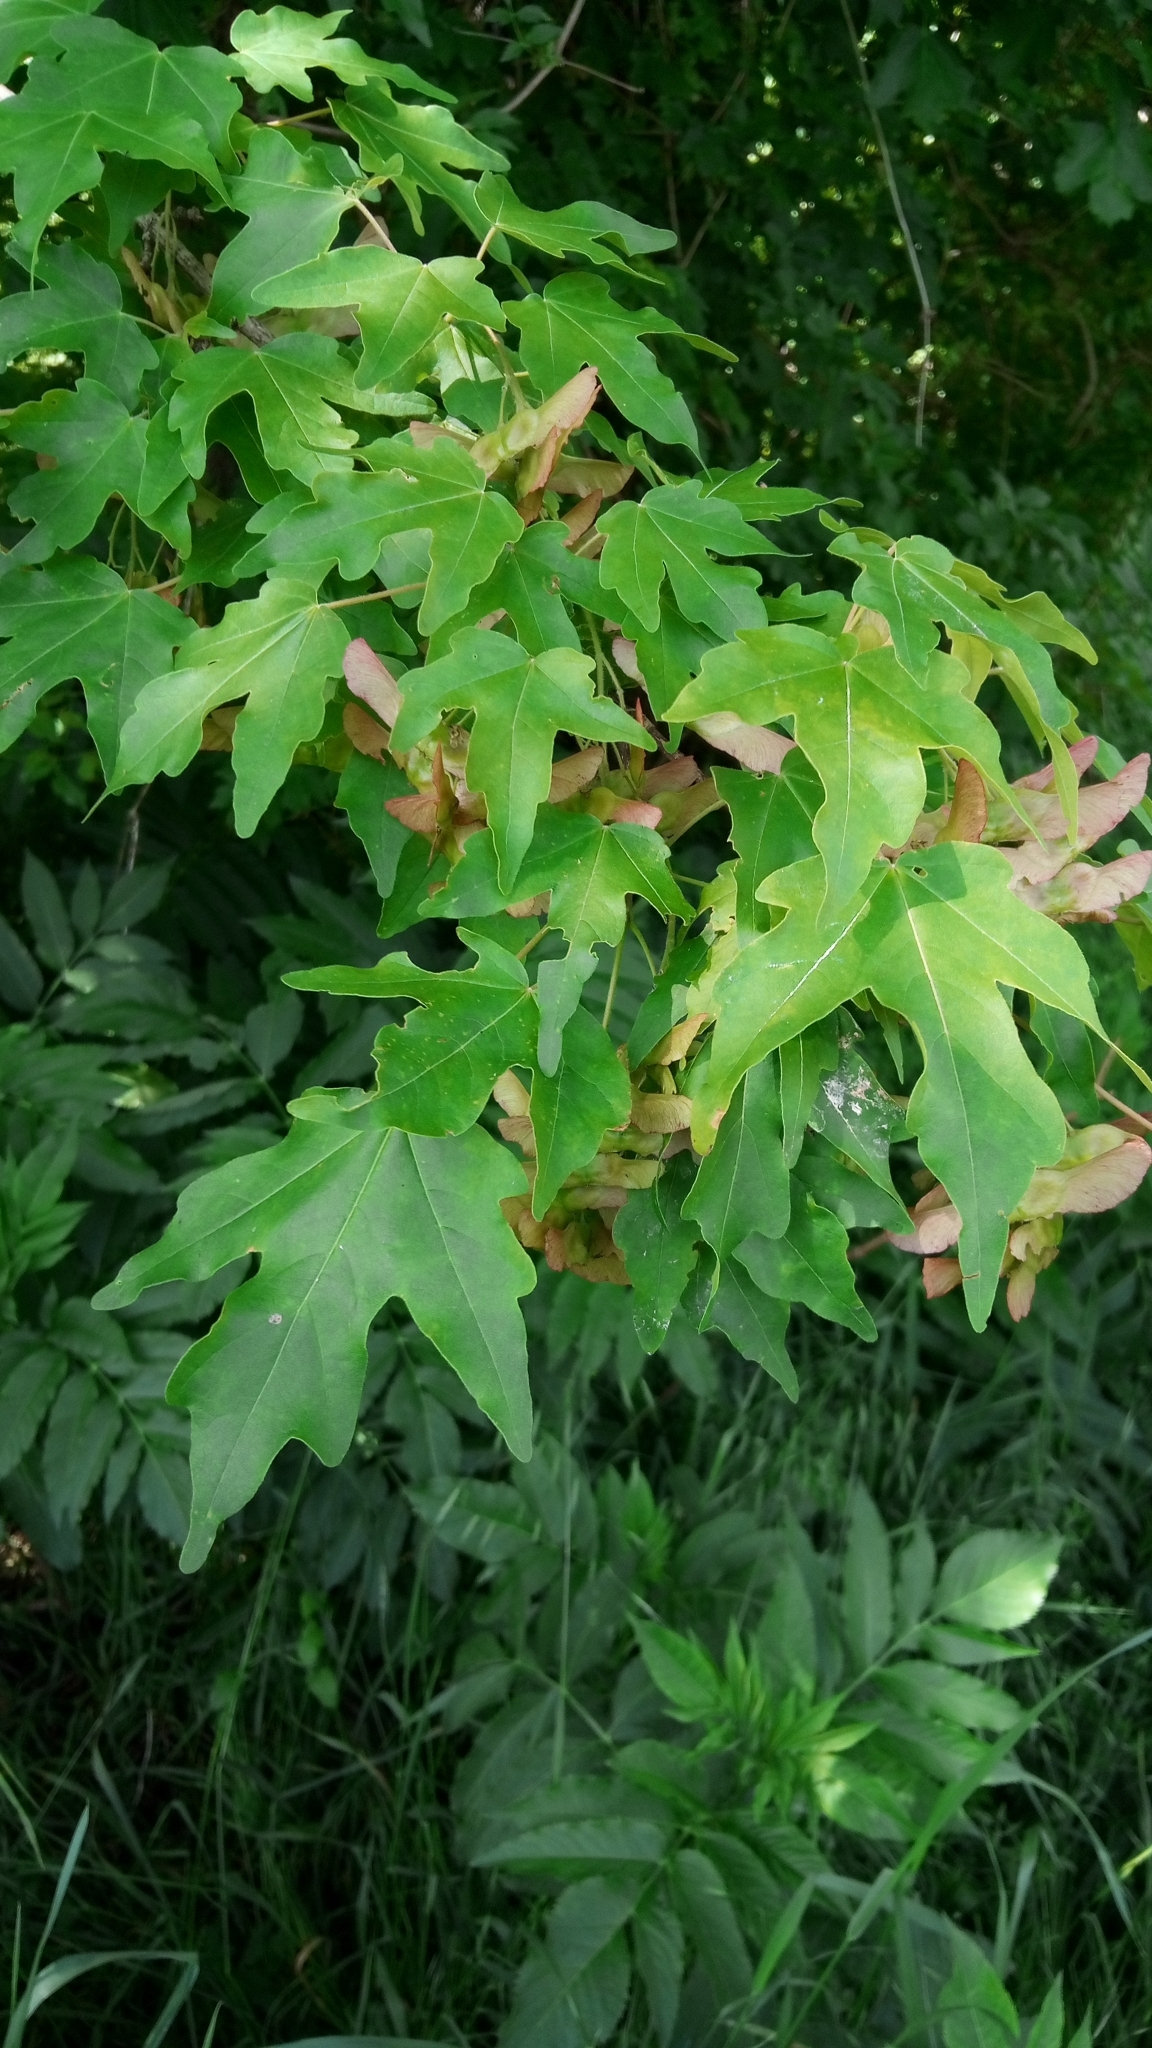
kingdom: Plantae
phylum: Tracheophyta
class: Magnoliopsida
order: Sapindales
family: Sapindaceae
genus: Acer
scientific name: Acer campestre
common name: Field maple
